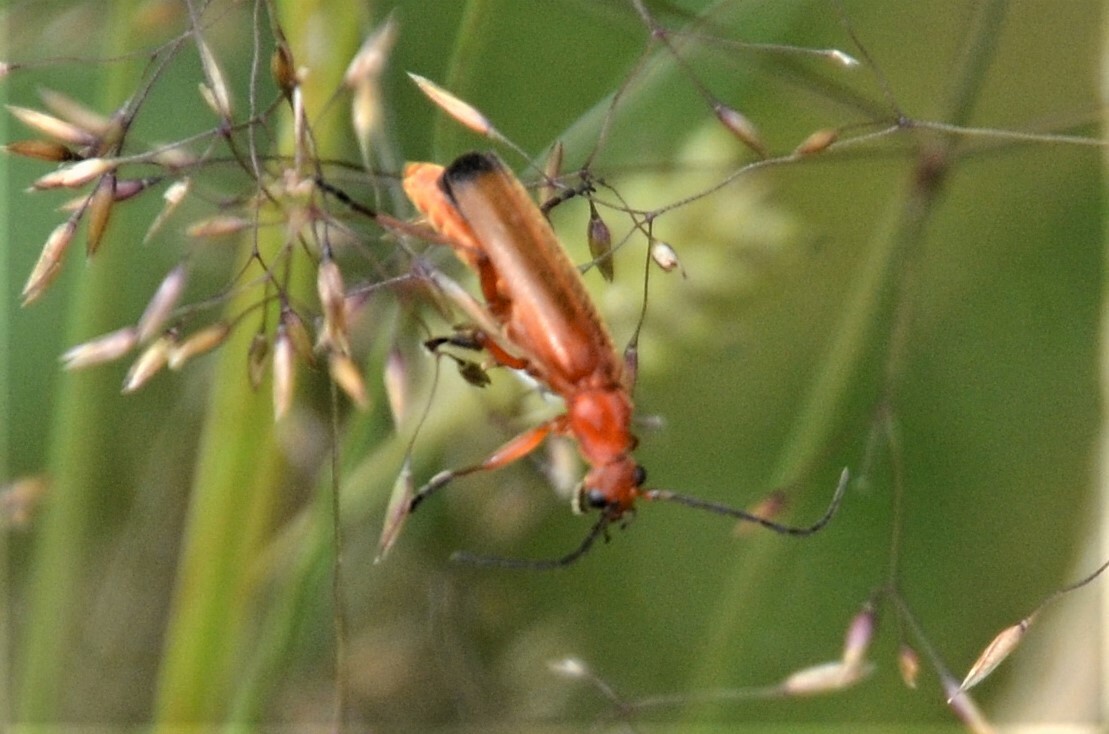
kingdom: Animalia
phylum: Arthropoda
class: Insecta
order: Coleoptera
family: Cantharidae
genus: Rhagonycha
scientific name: Rhagonycha fulva
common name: Common red soldier beetle
